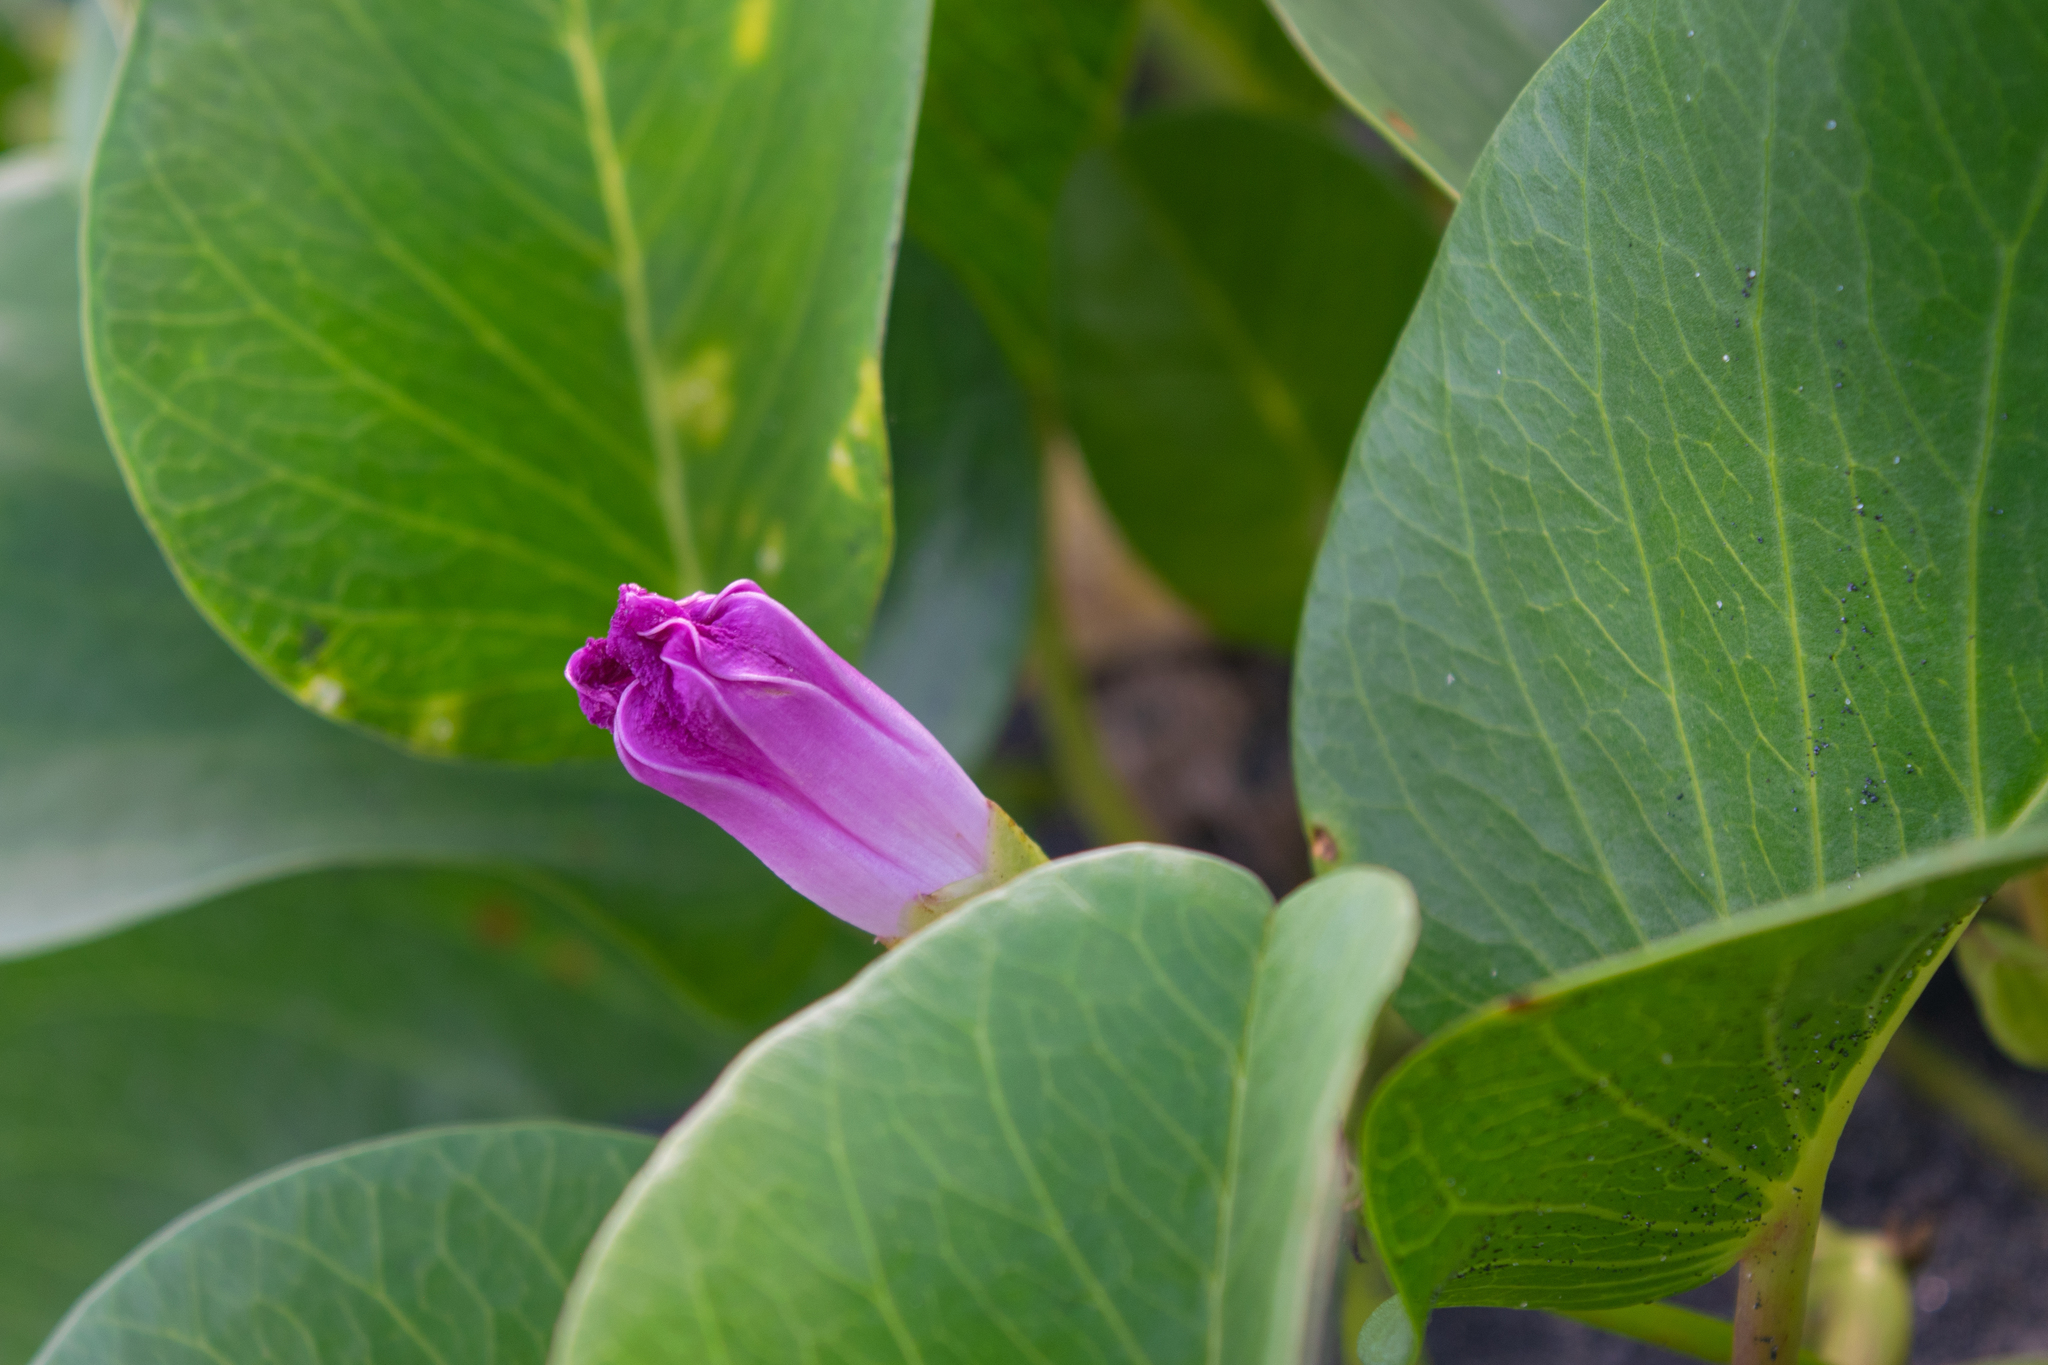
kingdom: Plantae
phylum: Tracheophyta
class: Magnoliopsida
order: Solanales
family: Convolvulaceae
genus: Ipomoea
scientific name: Ipomoea pes-caprae
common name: Beach morning glory
